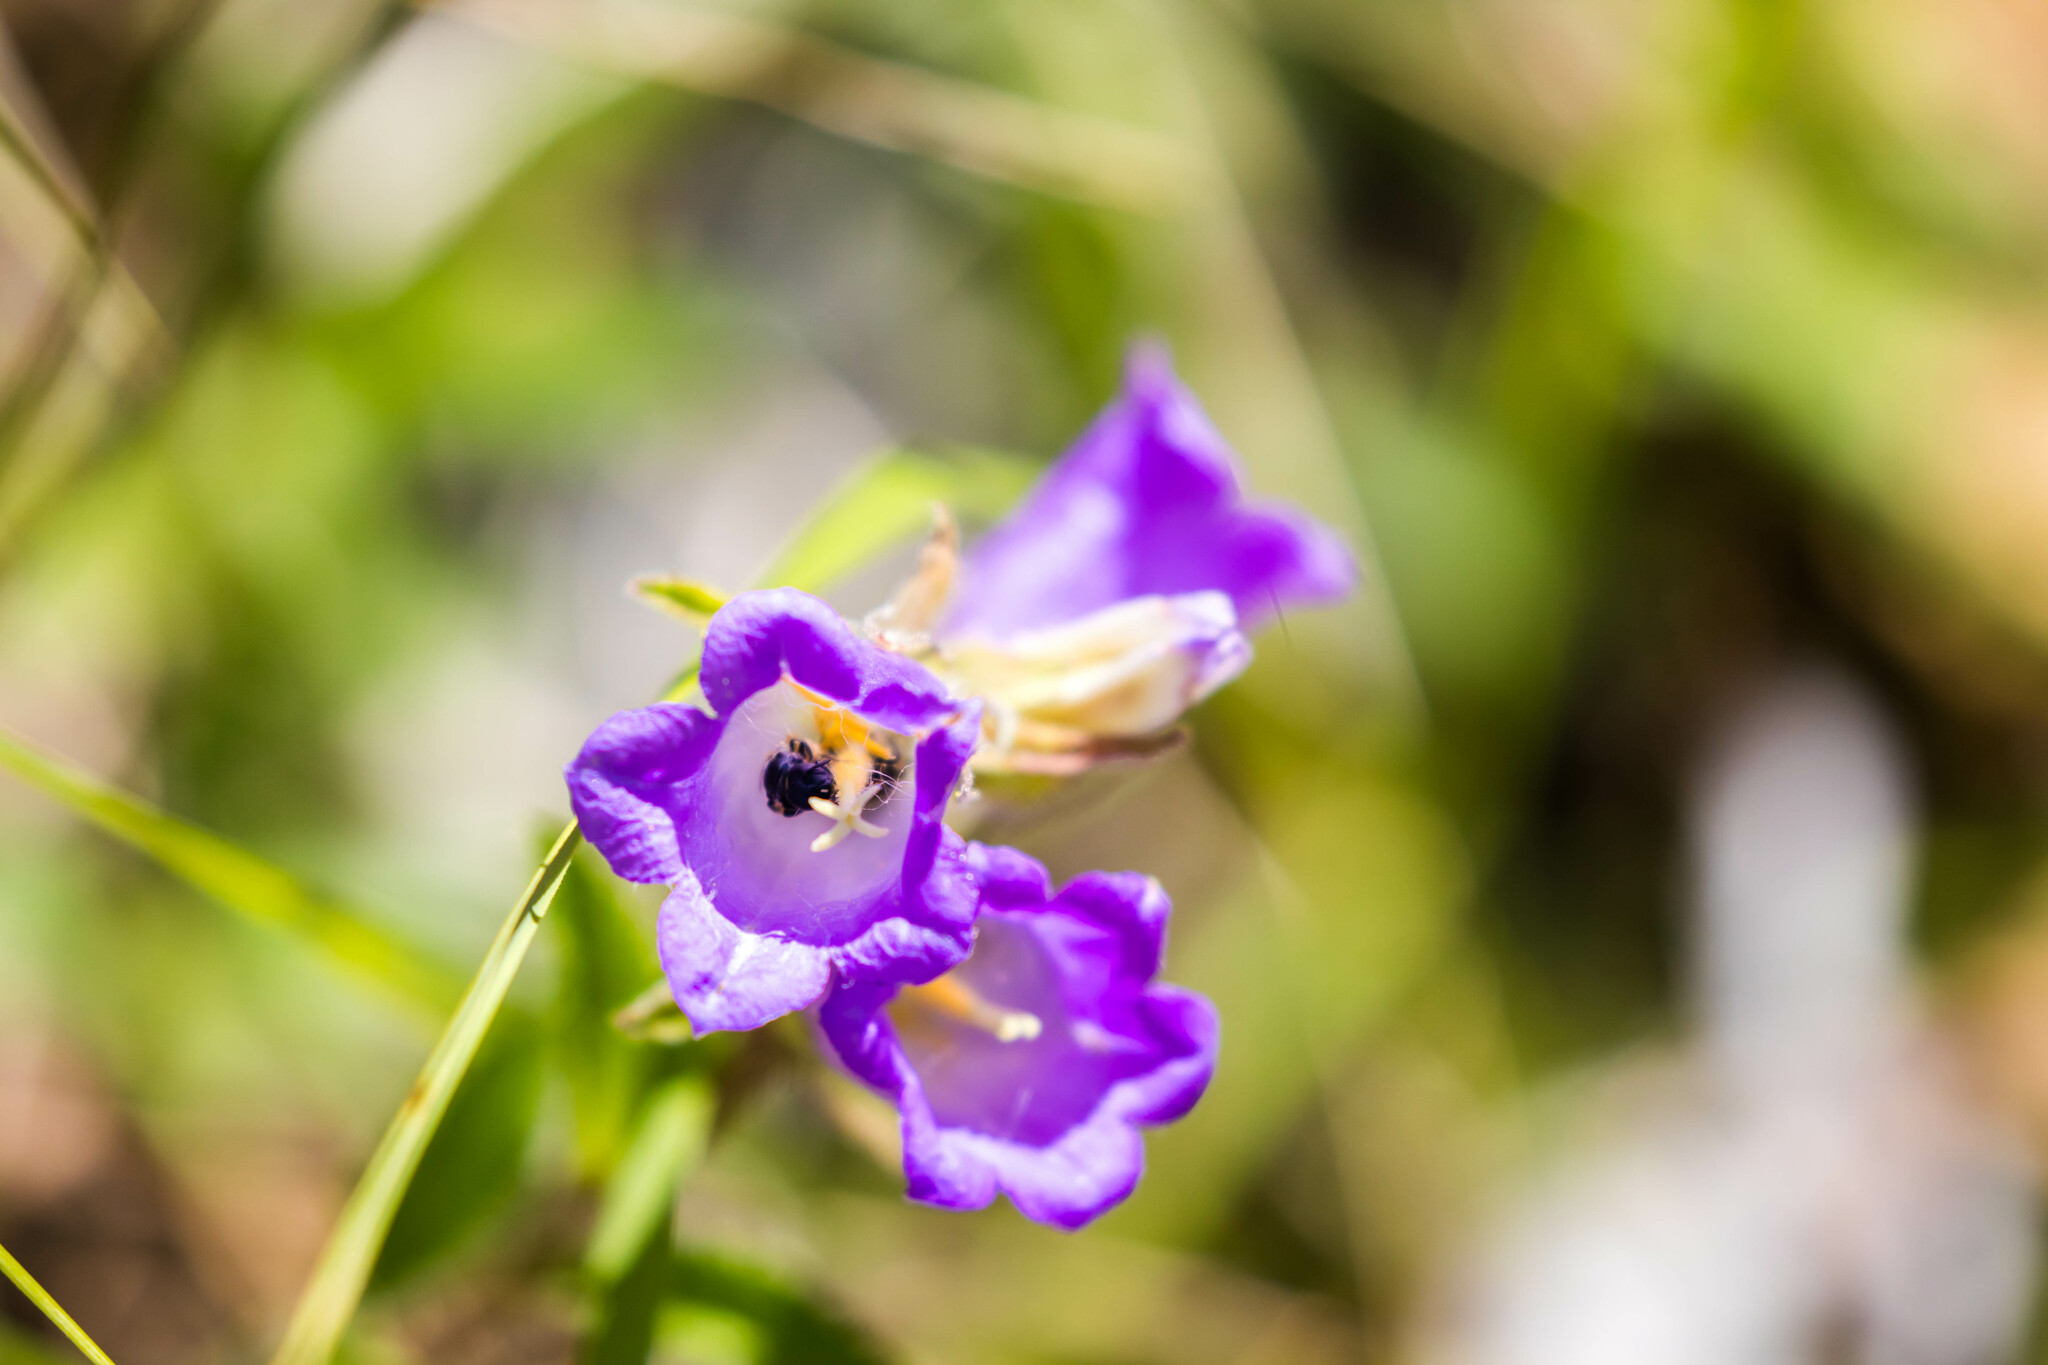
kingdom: Plantae
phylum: Tracheophyta
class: Magnoliopsida
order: Asterales
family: Campanulaceae
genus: Campanula
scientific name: Campanula medium
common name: Canterbury bells
